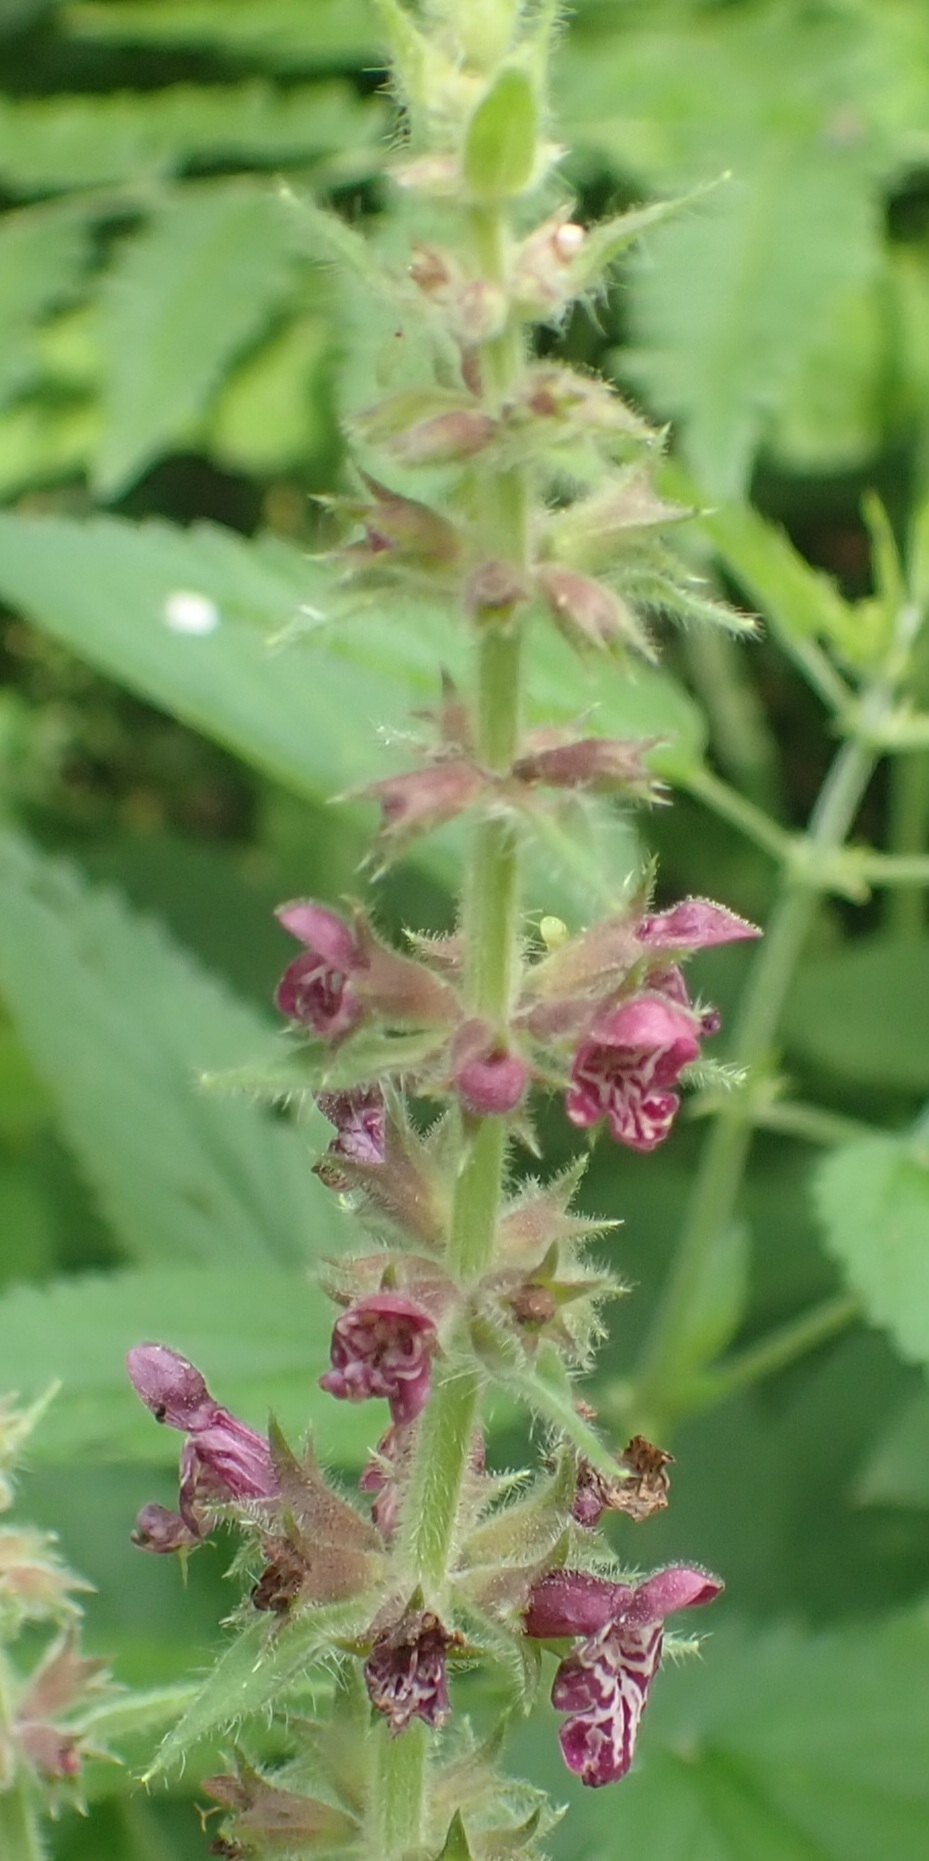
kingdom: Plantae
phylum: Tracheophyta
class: Magnoliopsida
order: Lamiales
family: Lamiaceae
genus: Stachys
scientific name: Stachys sylvatica
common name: Hedge woundwort
